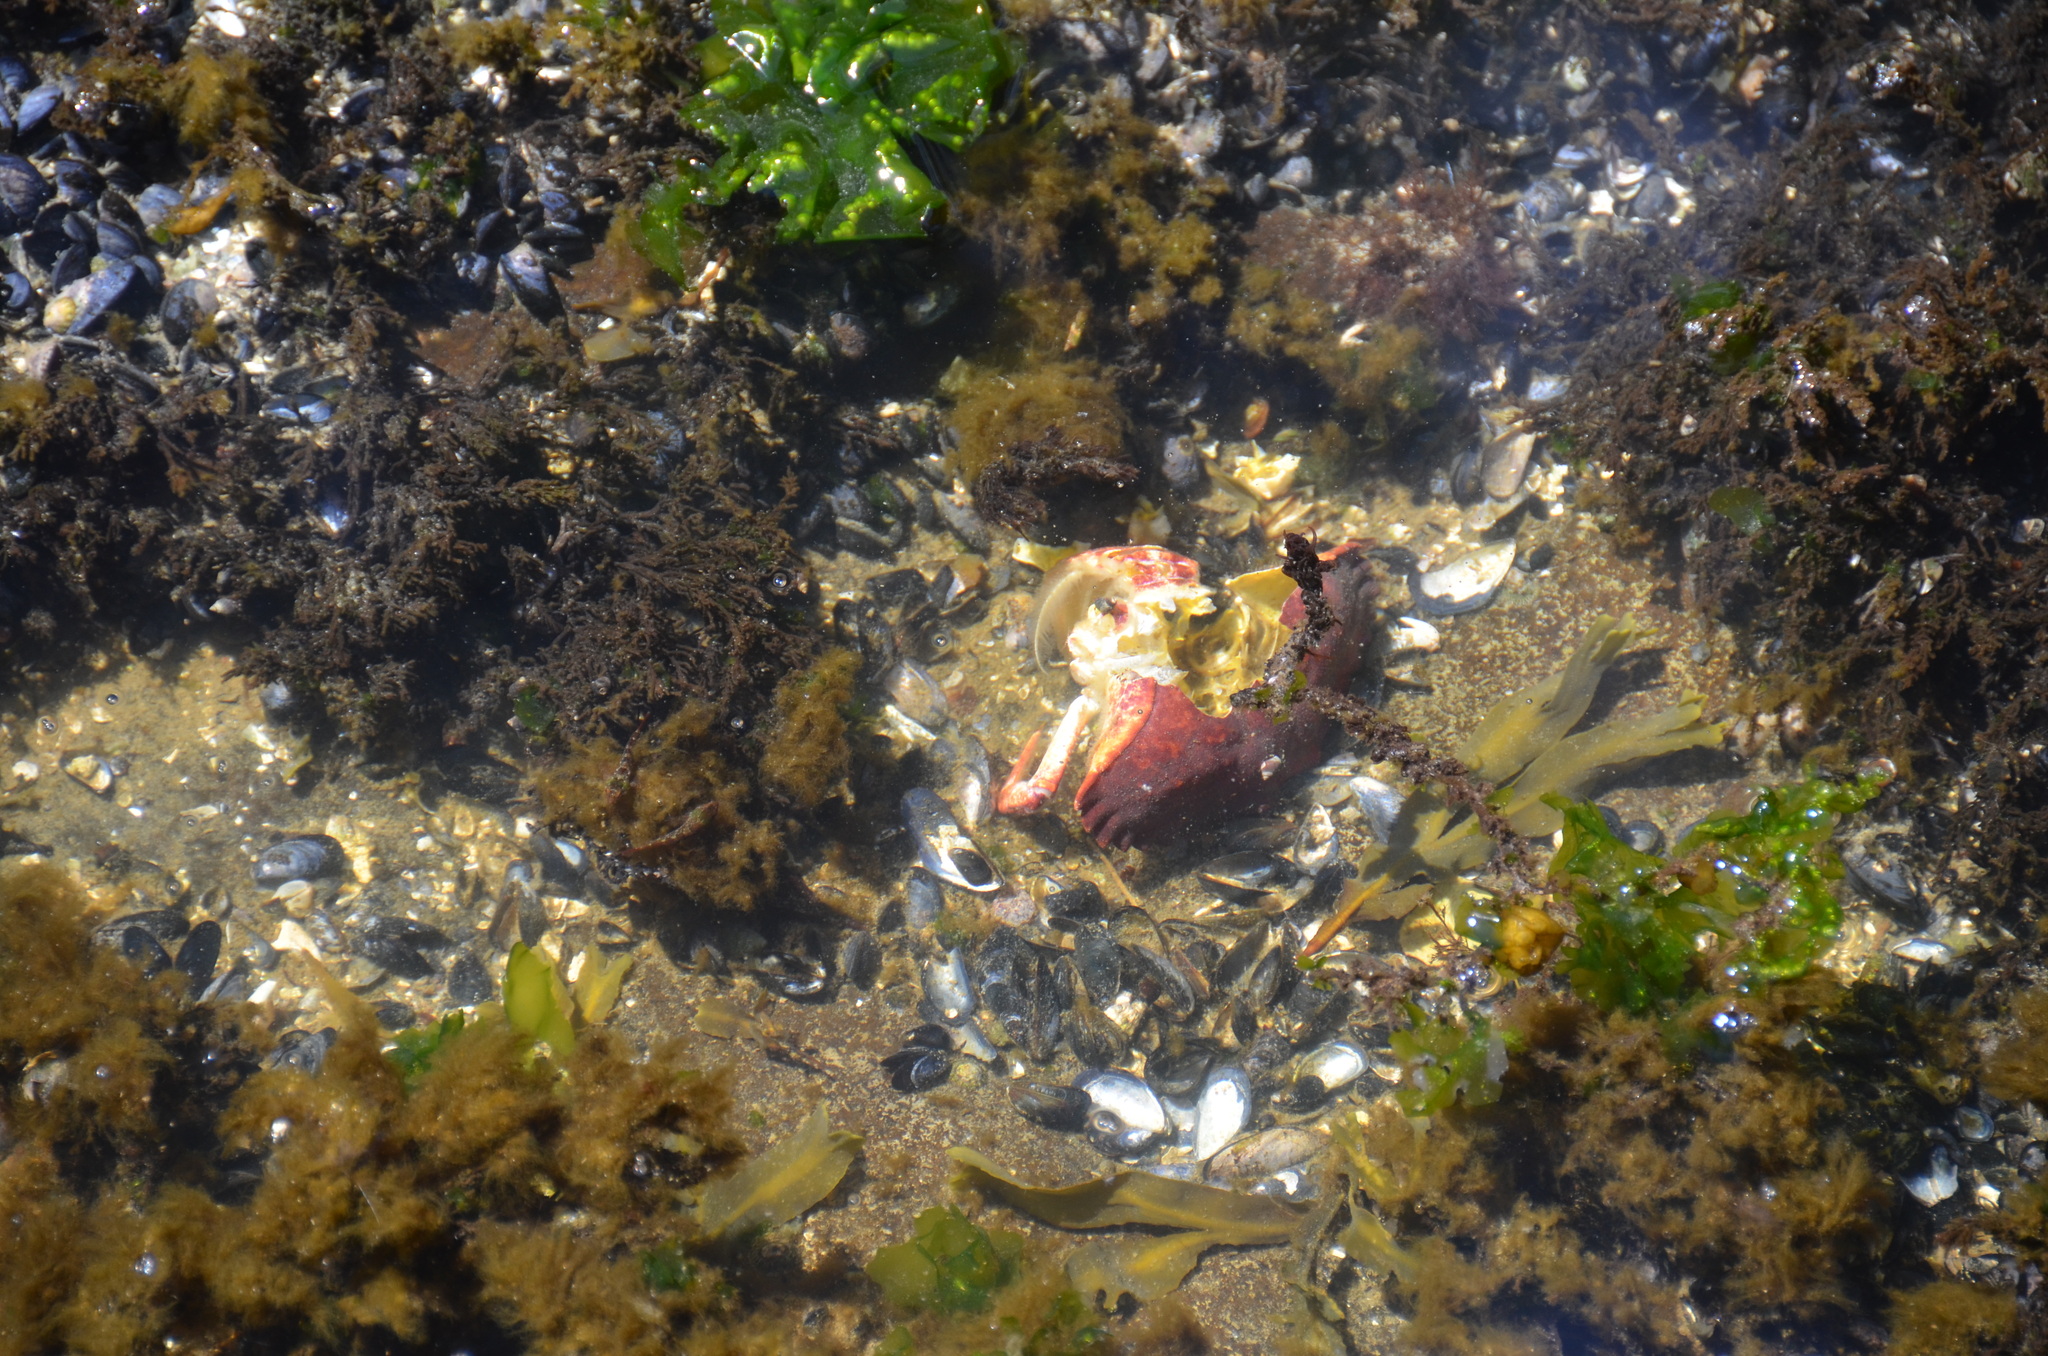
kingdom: Animalia
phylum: Arthropoda
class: Malacostraca
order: Decapoda
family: Cancridae
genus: Cancer
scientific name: Cancer productus
